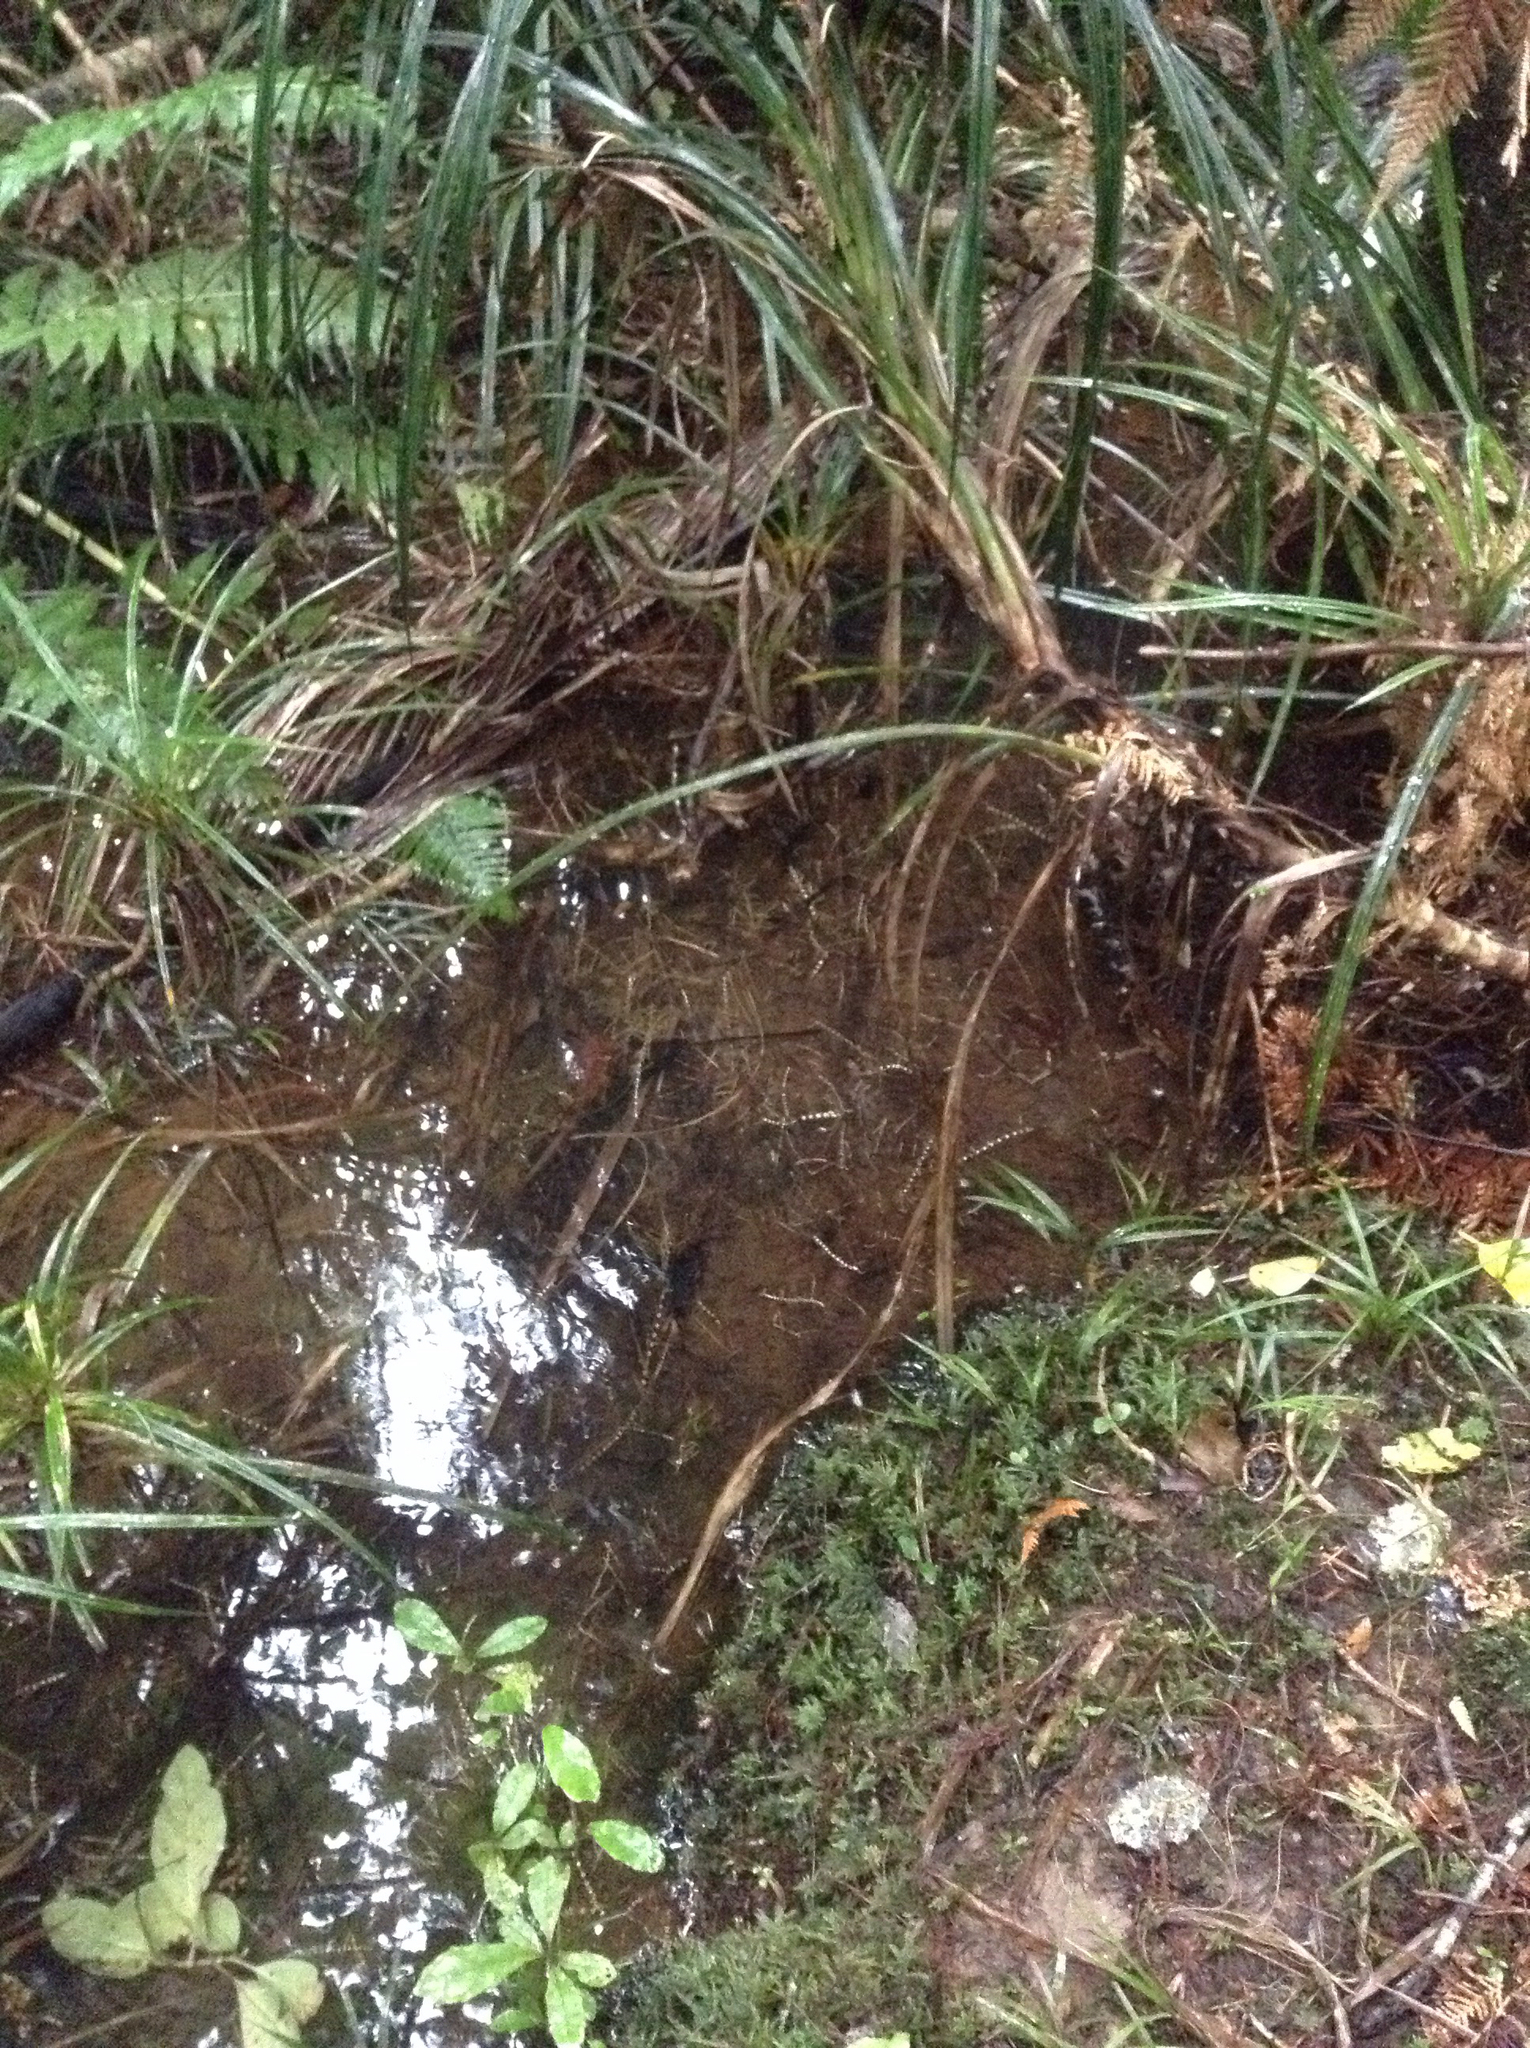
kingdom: Plantae
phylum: Tracheophyta
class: Liliopsida
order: Arecales
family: Arecaceae
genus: Rhopalostylis
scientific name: Rhopalostylis sapida
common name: Feather-duster palm
